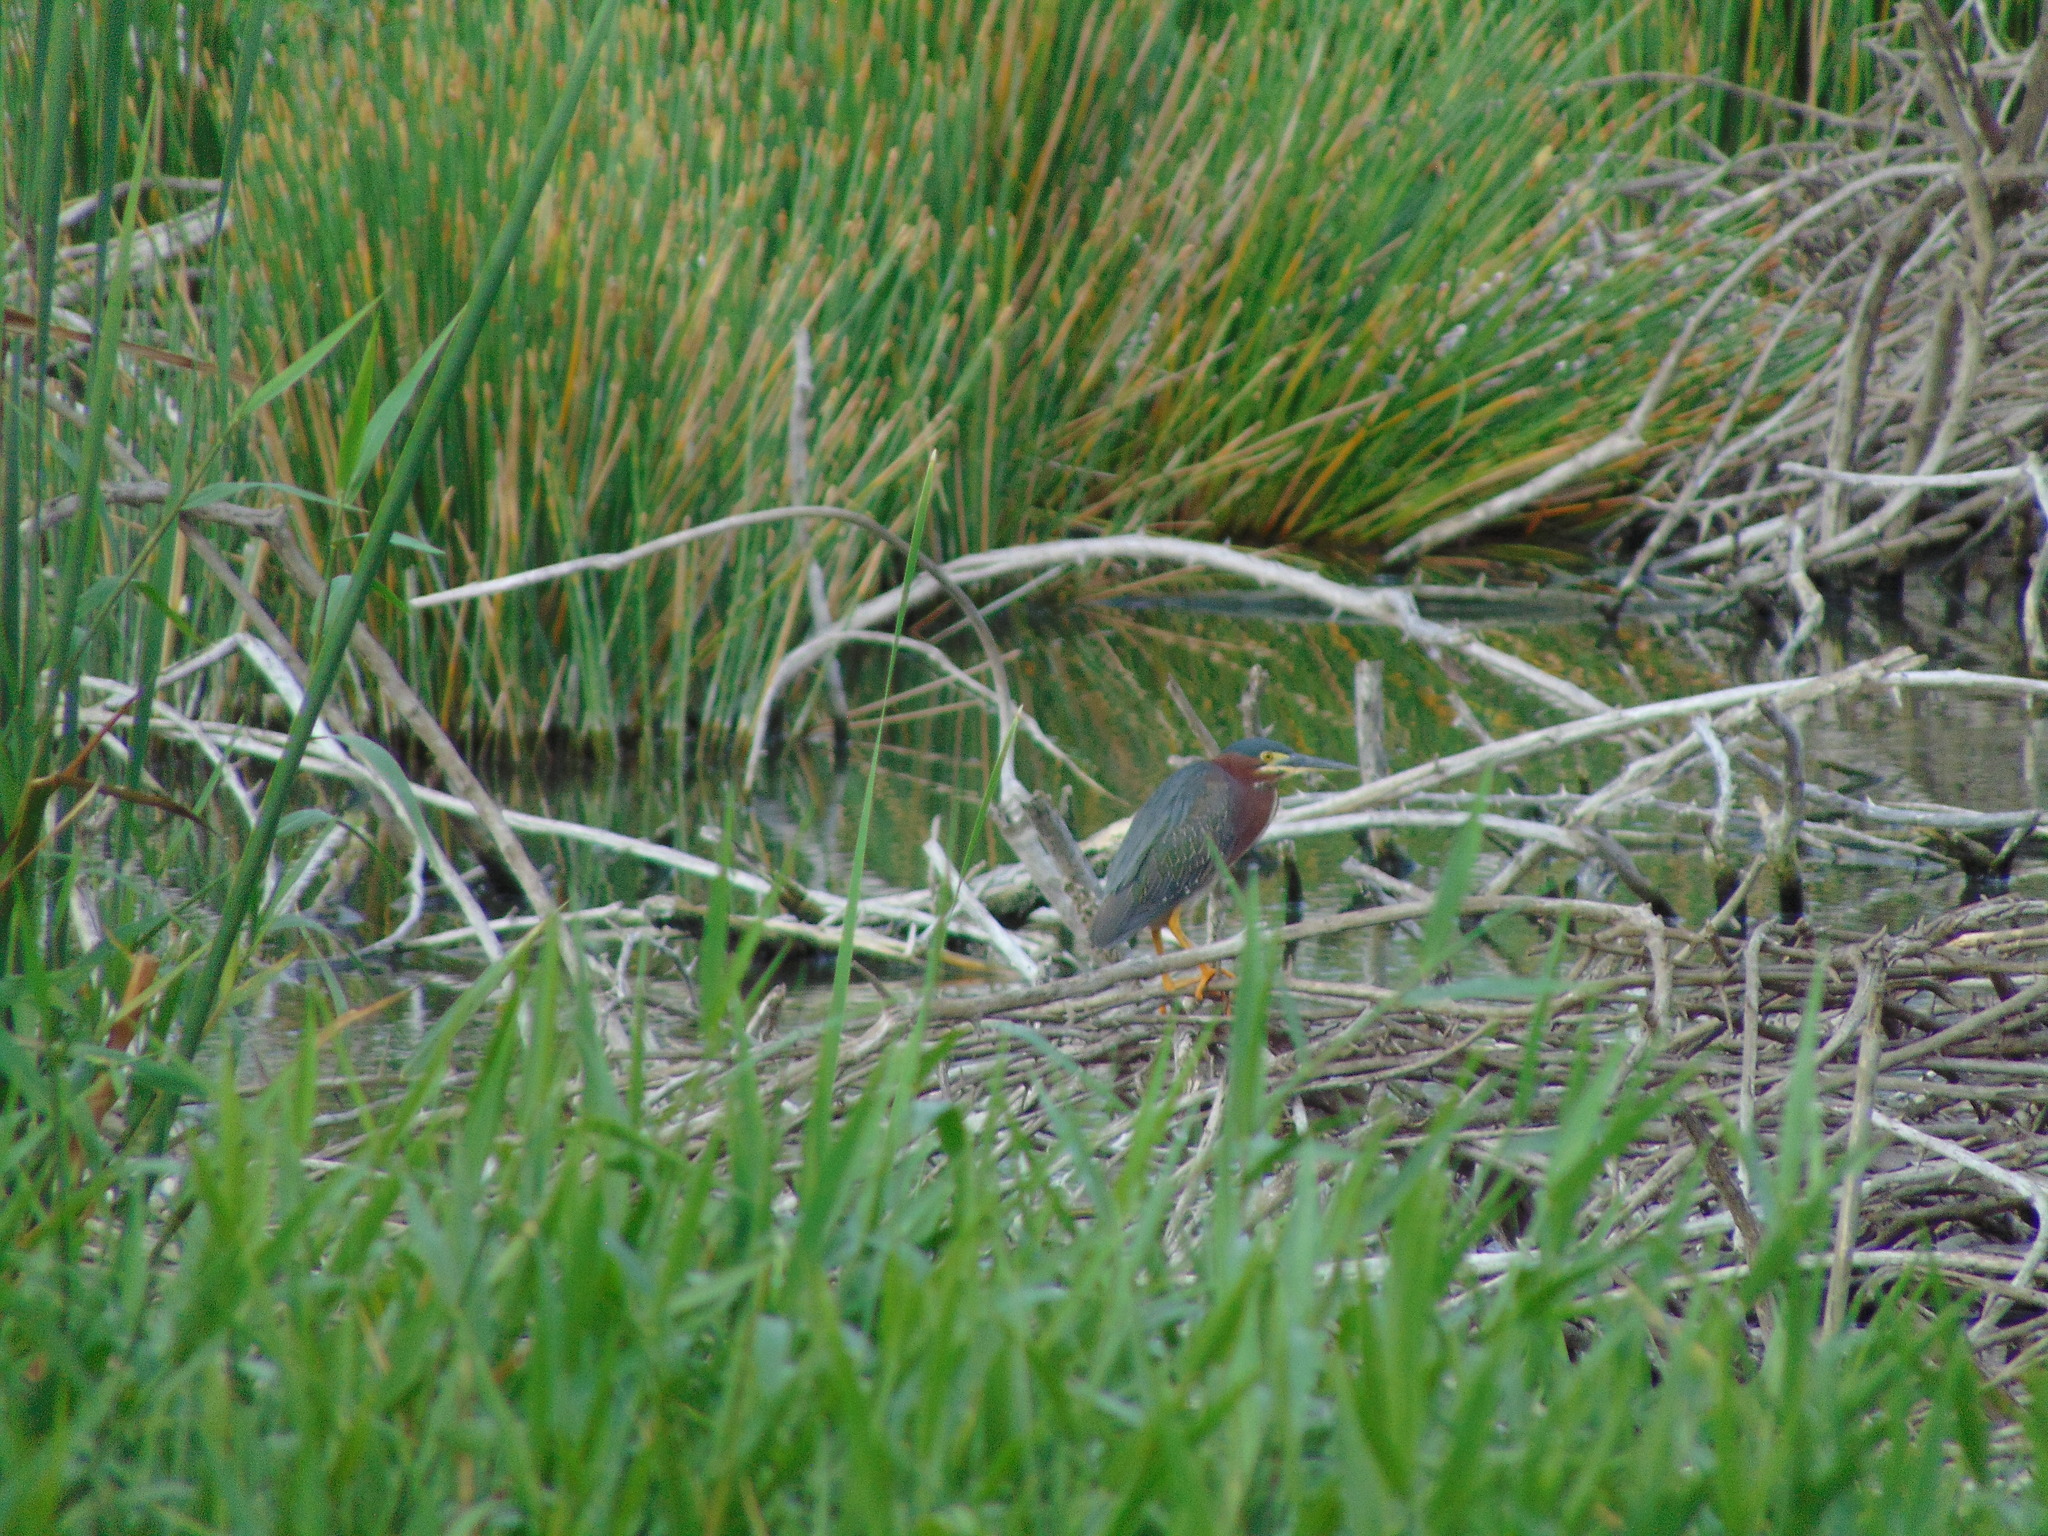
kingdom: Animalia
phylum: Chordata
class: Aves
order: Pelecaniformes
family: Ardeidae
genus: Butorides
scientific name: Butorides virescens
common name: Green heron
